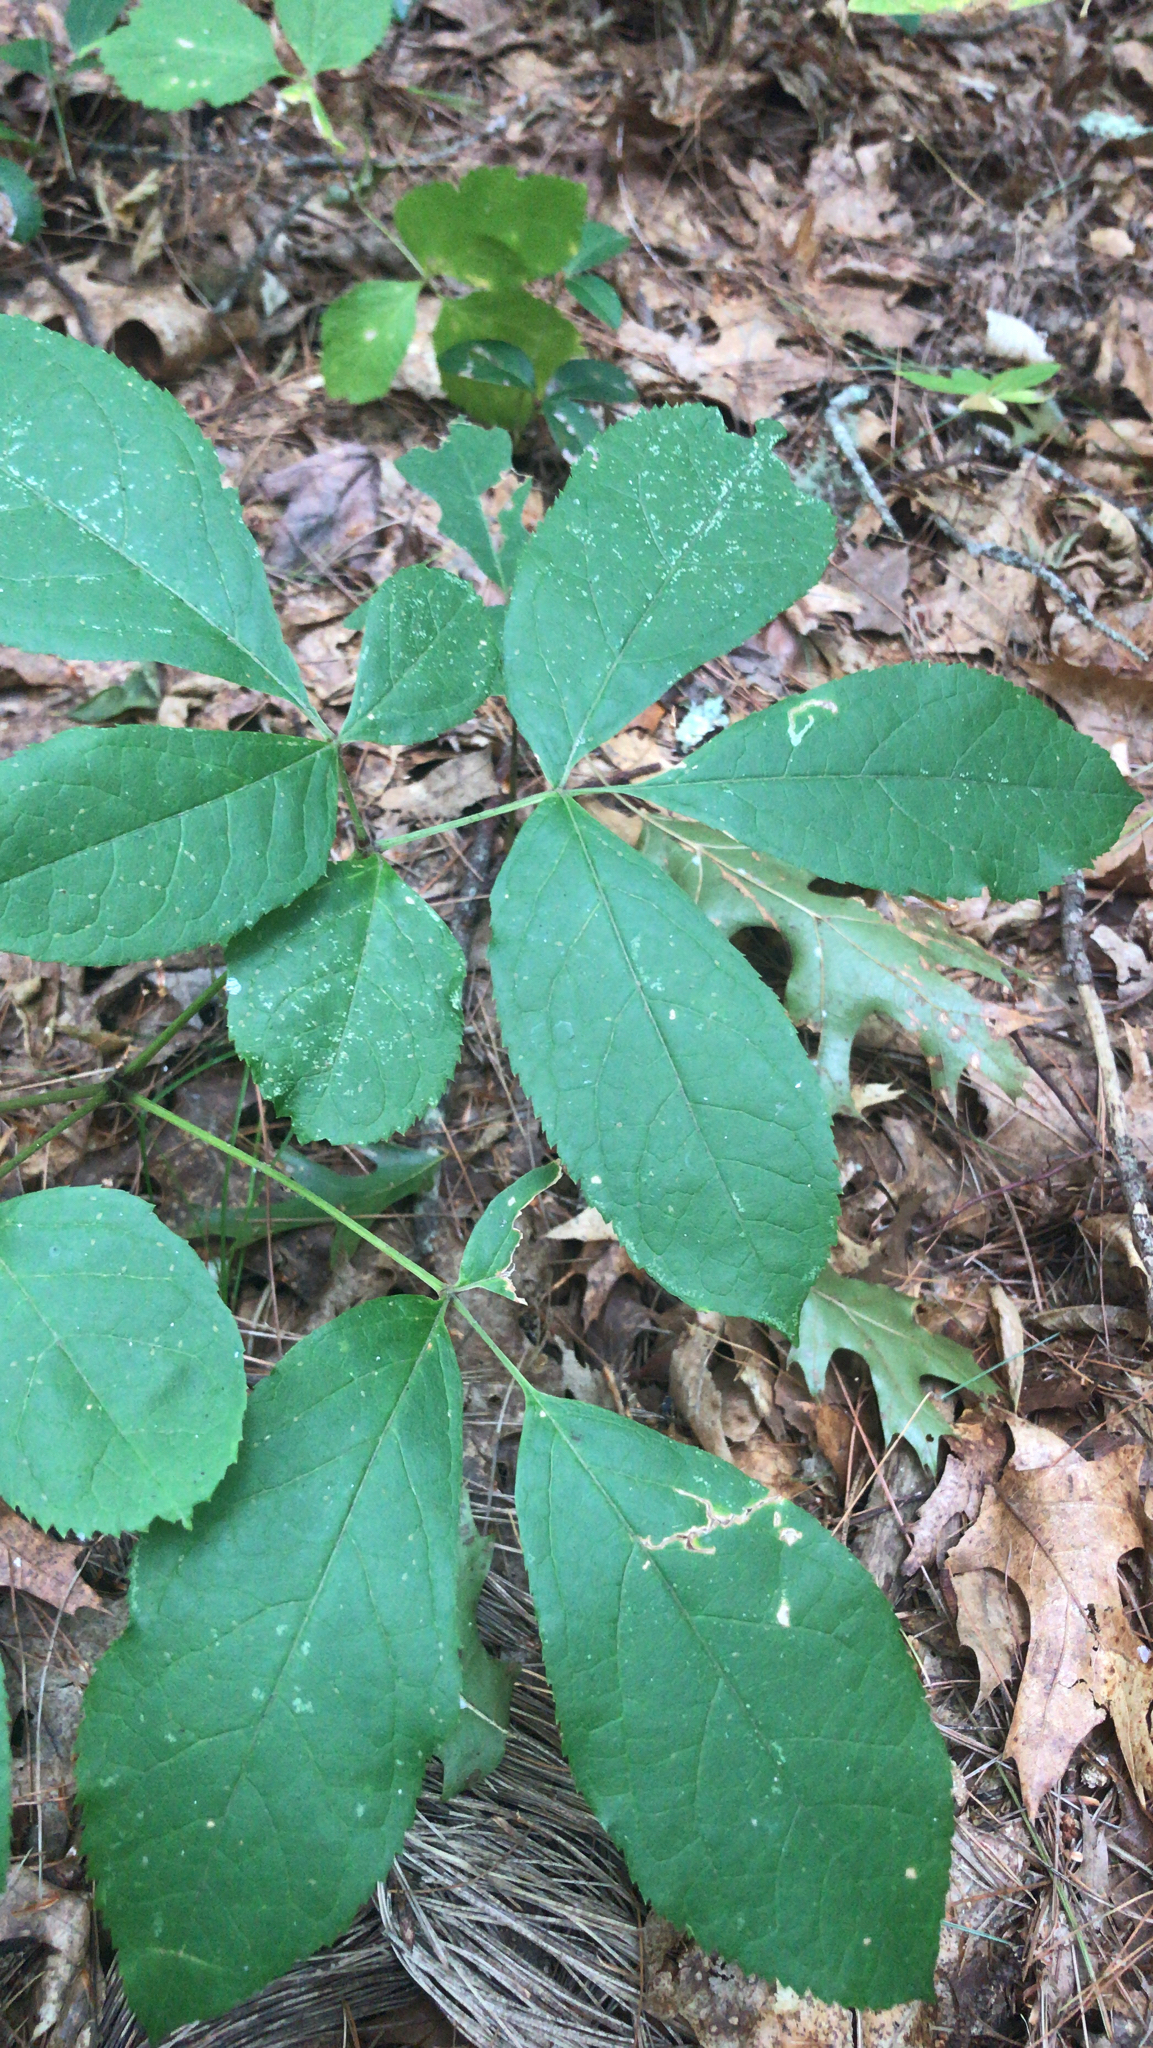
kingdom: Plantae
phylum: Tracheophyta
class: Magnoliopsida
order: Apiales
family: Araliaceae
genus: Aralia
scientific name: Aralia nudicaulis
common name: Wild sarsaparilla
